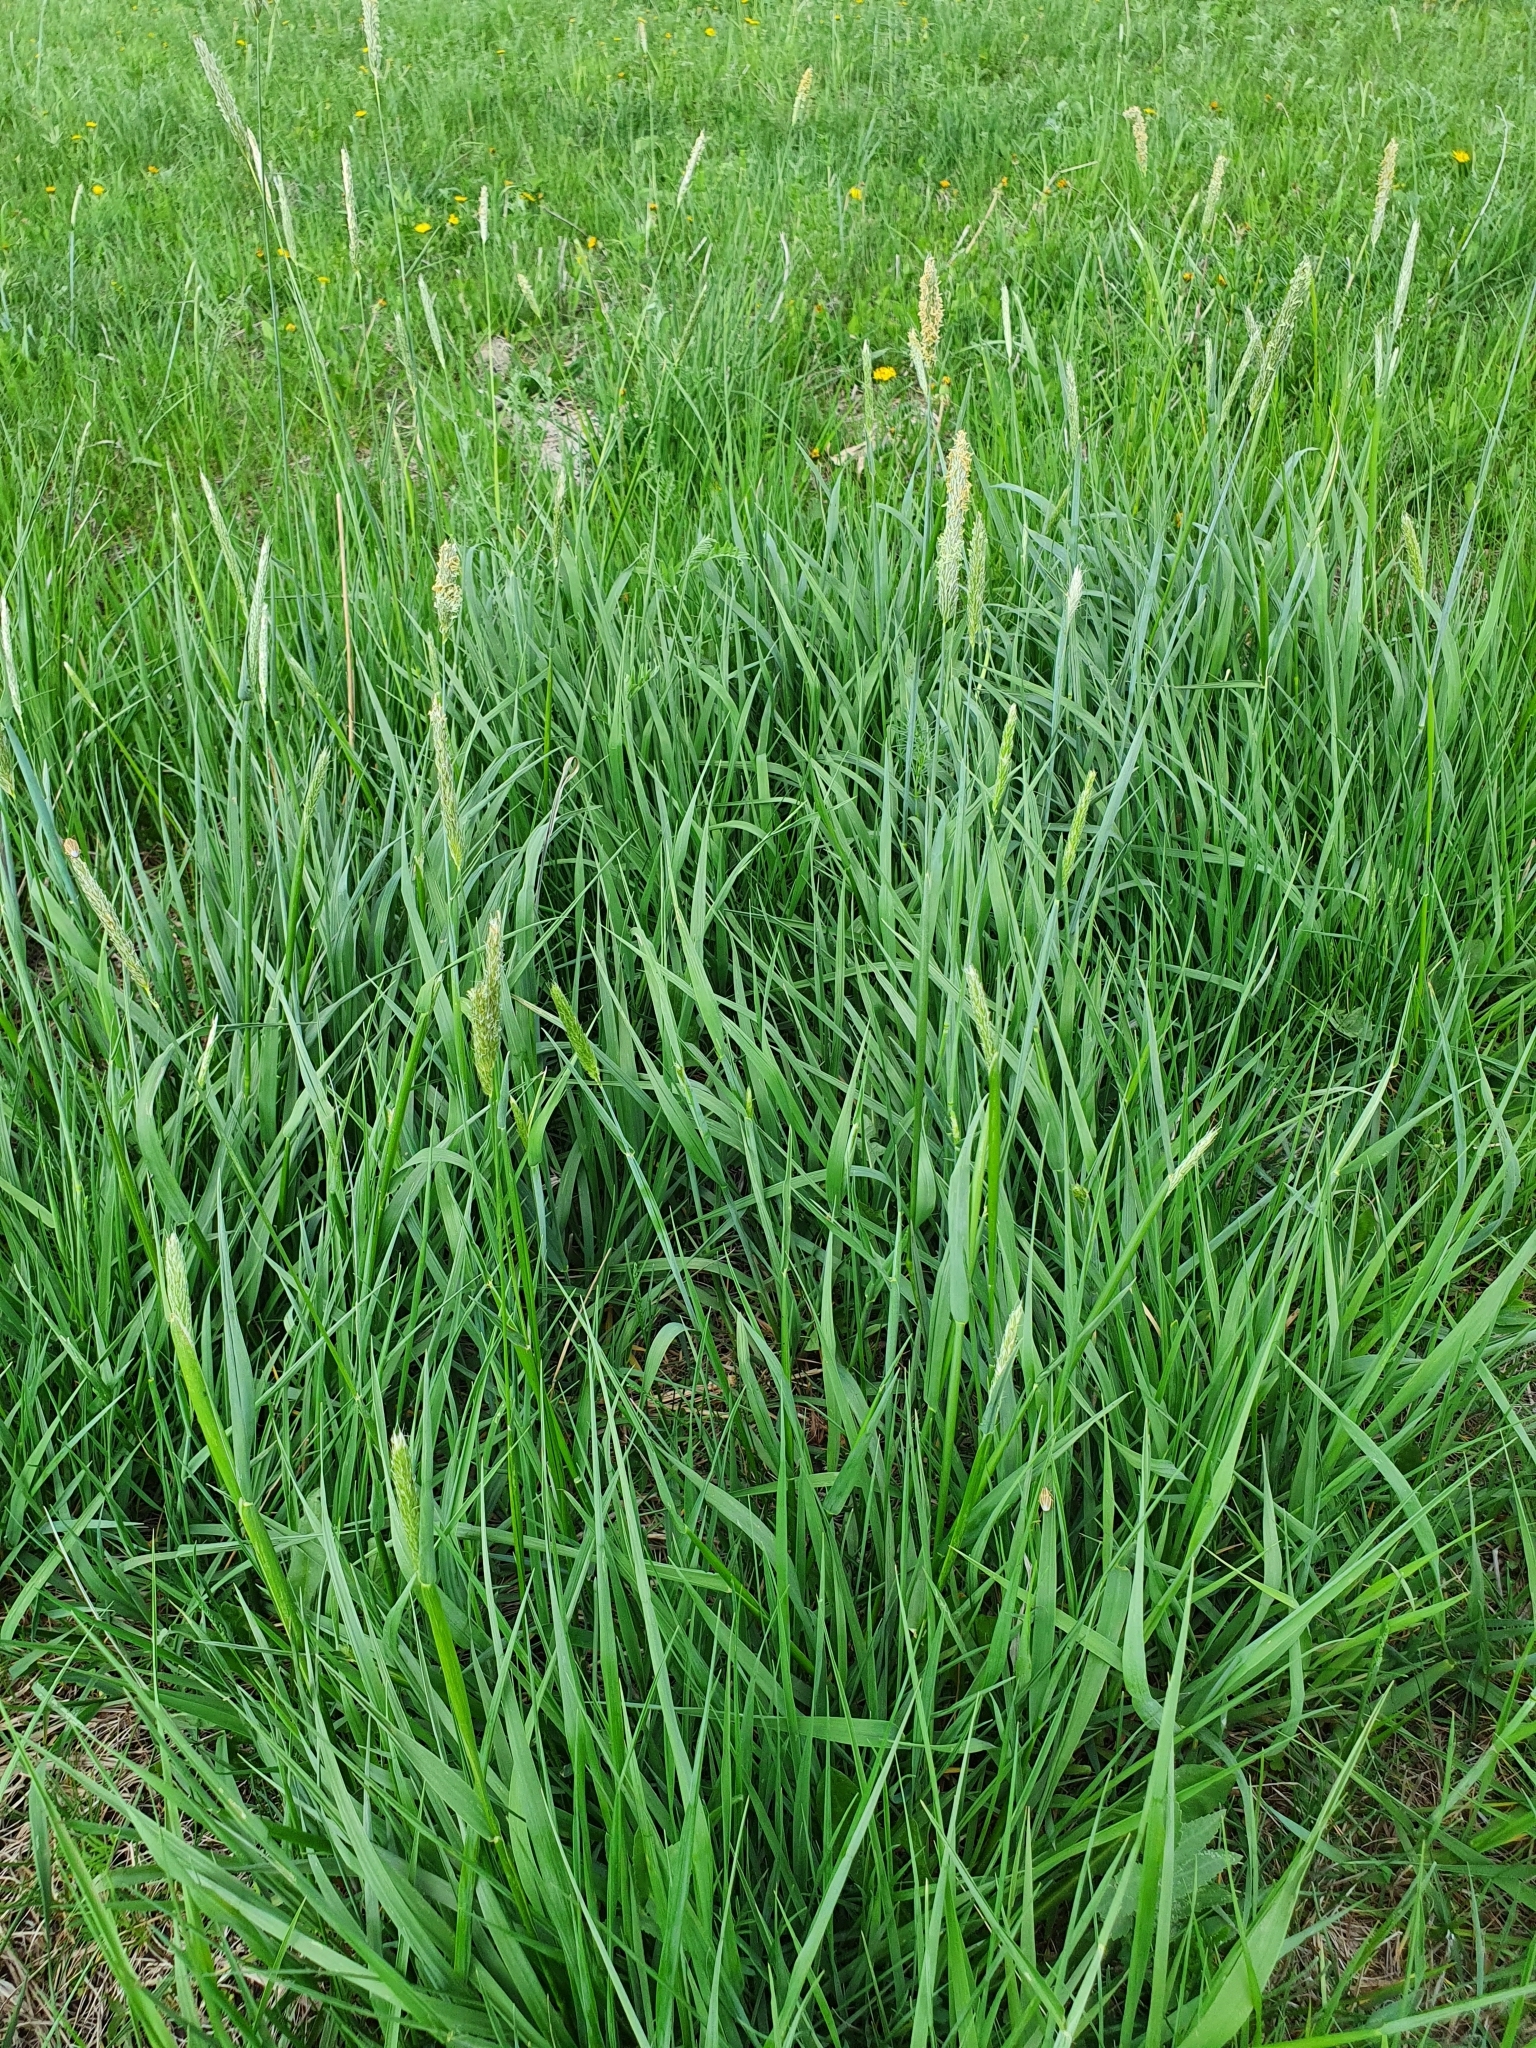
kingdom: Plantae
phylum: Tracheophyta
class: Liliopsida
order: Poales
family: Poaceae
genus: Alopecurus
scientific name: Alopecurus pratensis
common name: Meadow foxtail
